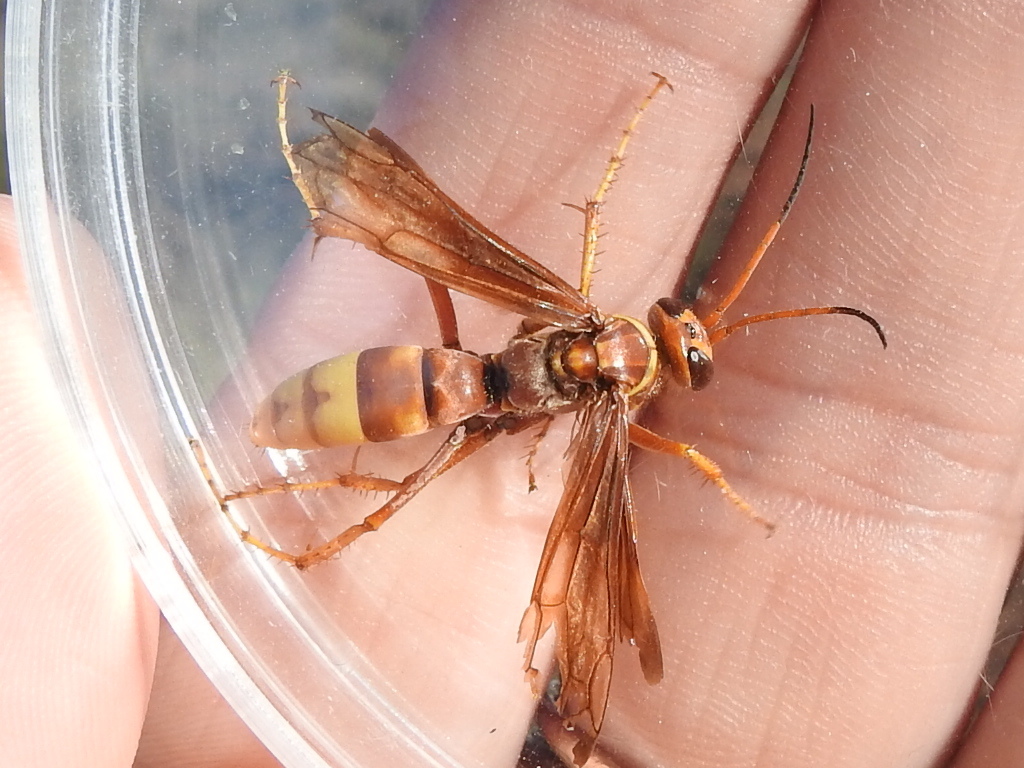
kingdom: Animalia
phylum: Arthropoda
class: Insecta
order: Hymenoptera
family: Pompilidae
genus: Poecilopompilus
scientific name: Poecilopompilus algidus
